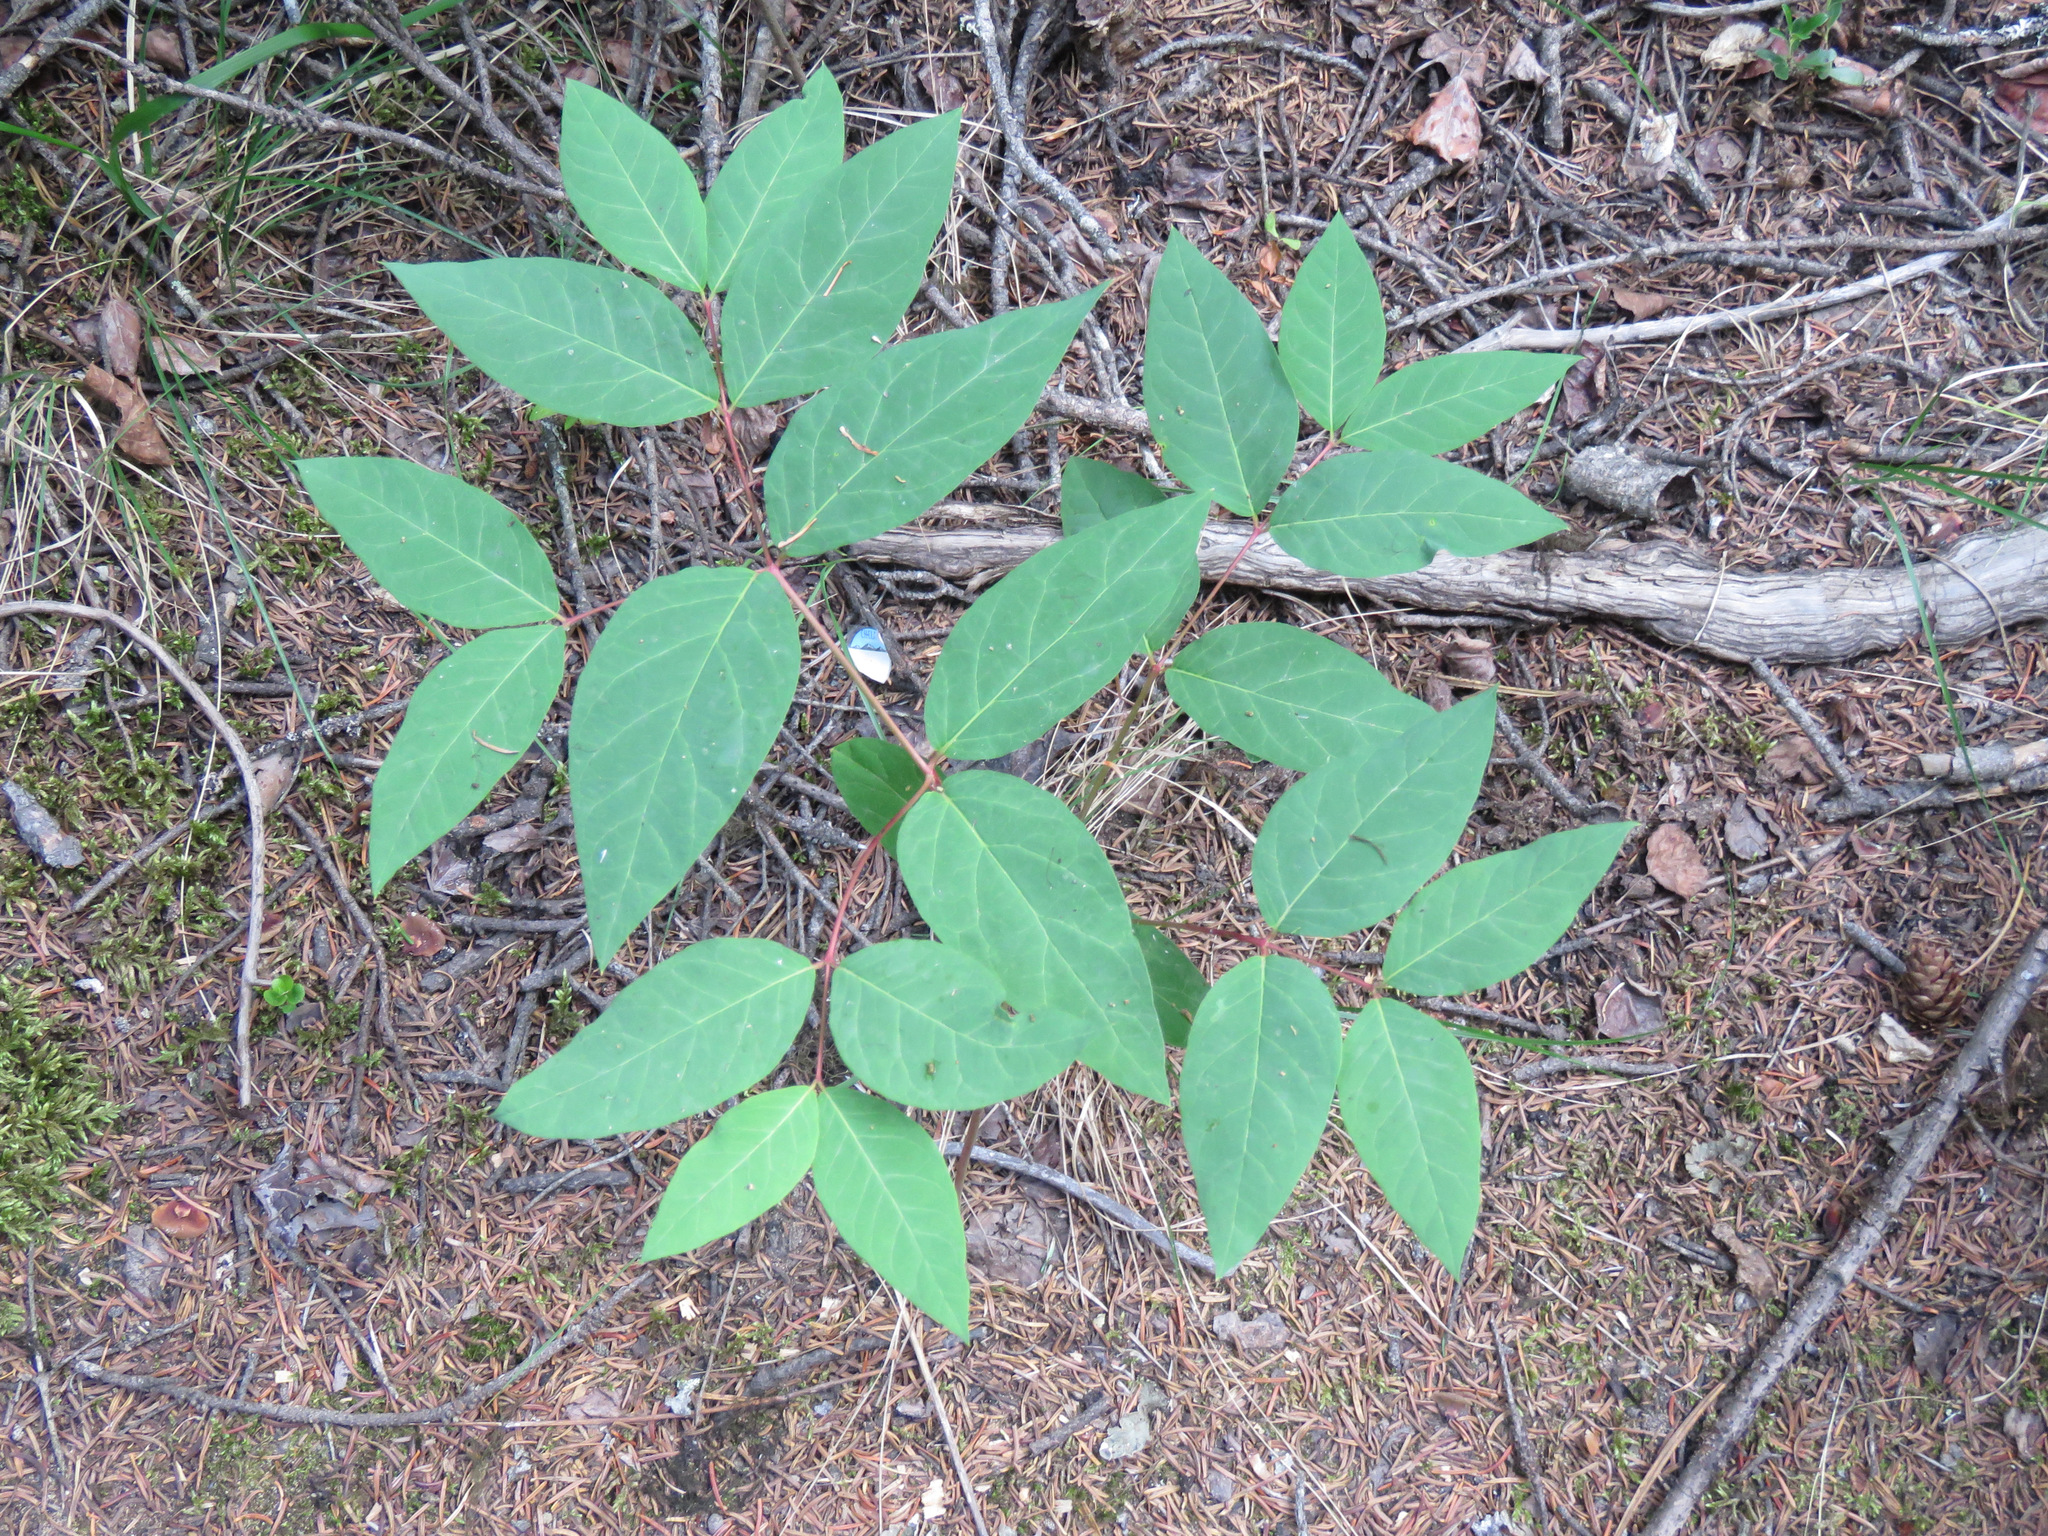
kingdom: Plantae
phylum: Tracheophyta
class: Magnoliopsida
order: Gentianales
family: Apocynaceae
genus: Apocynum
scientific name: Apocynum androsaemifolium
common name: Spreading dogbane
